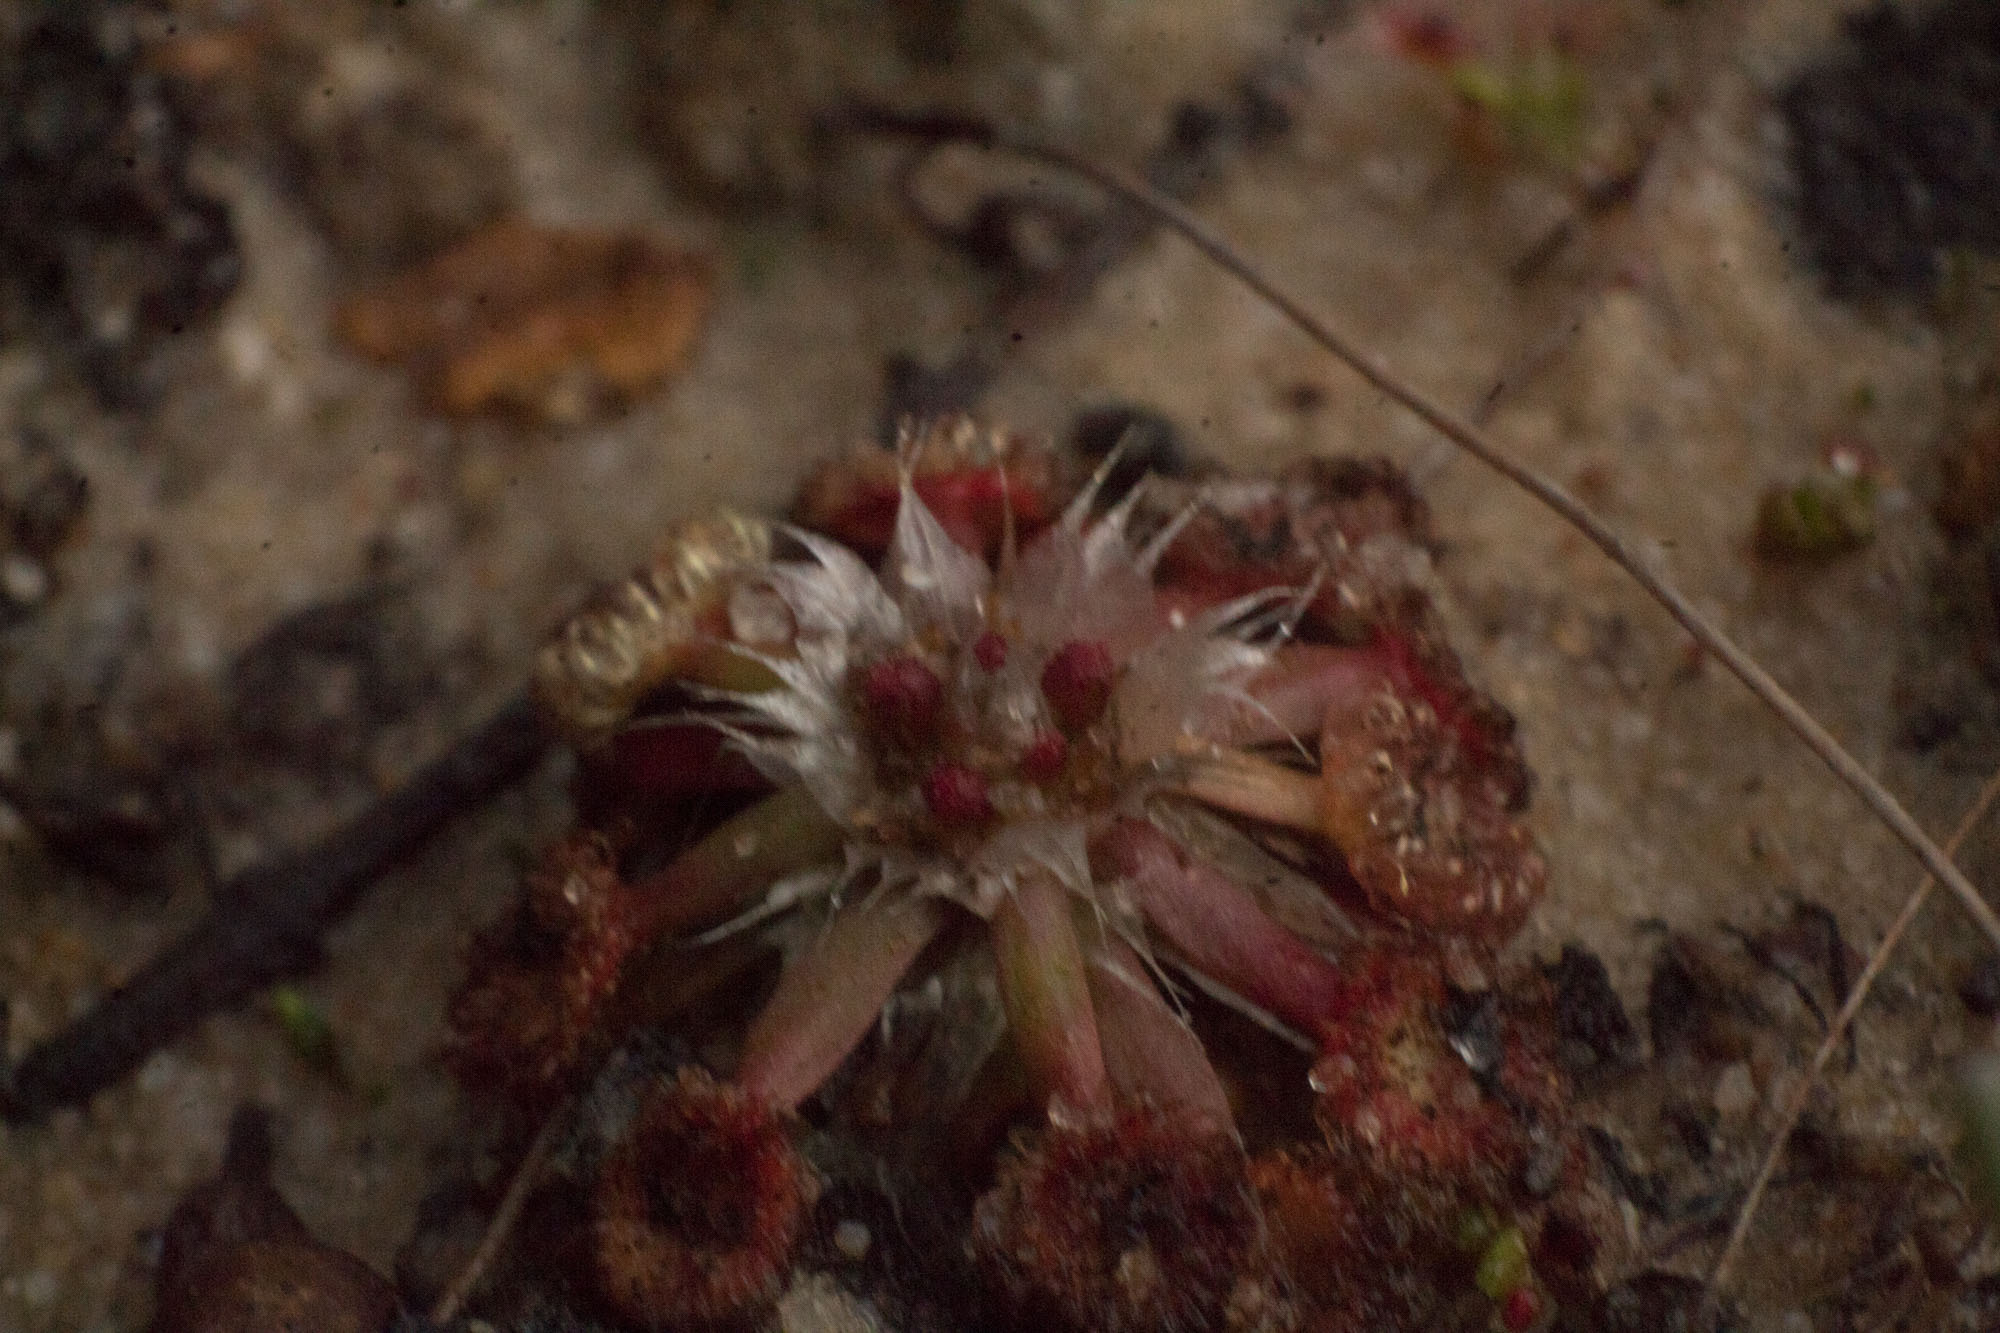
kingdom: Plantae
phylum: Tracheophyta
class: Magnoliopsida
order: Caryophyllales
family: Droseraceae
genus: Drosera
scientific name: Drosera androsacea
